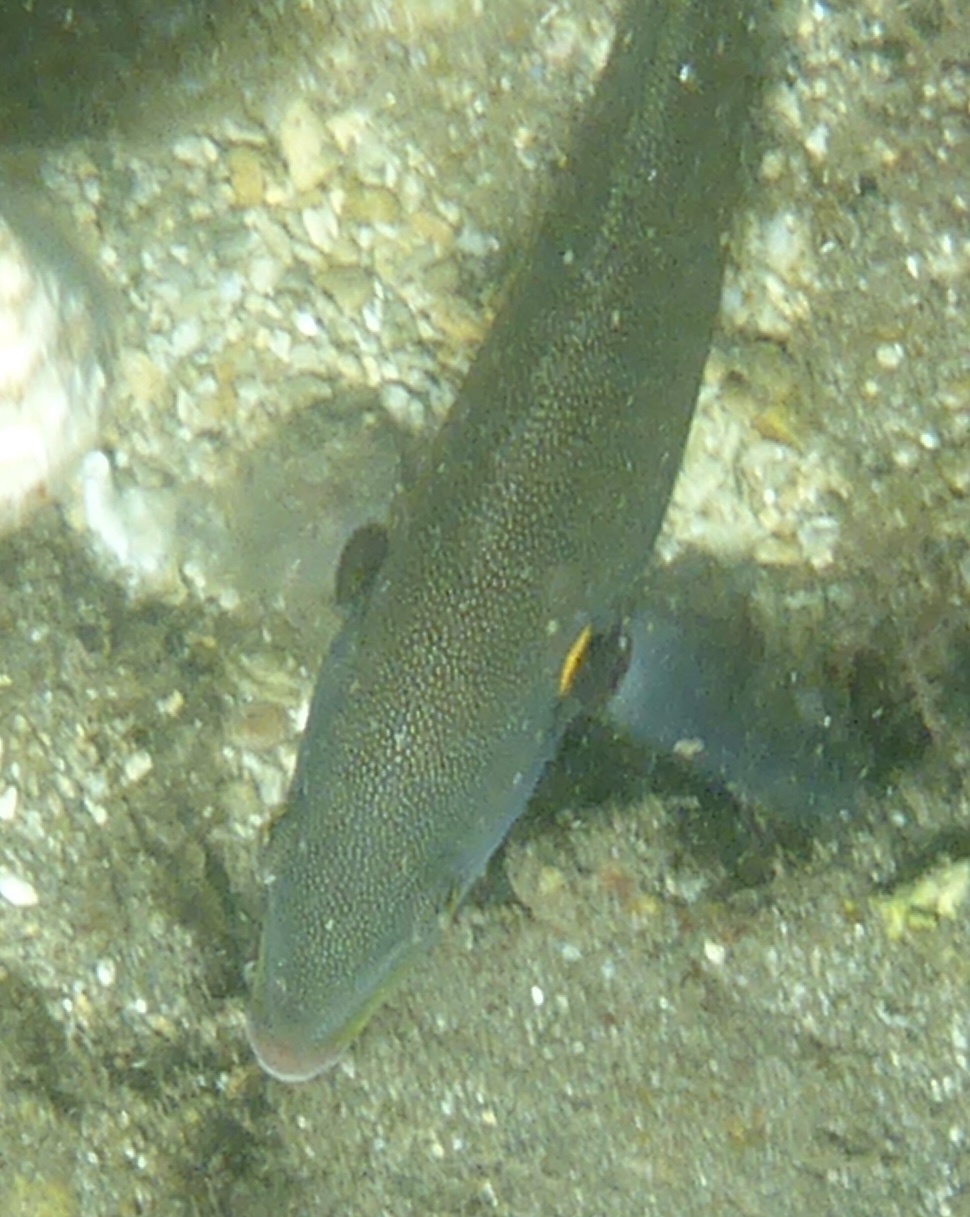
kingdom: Animalia
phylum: Chordata
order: Perciformes
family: Labridae
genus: Stethojulis
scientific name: Stethojulis balteata
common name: Belted wrasse
